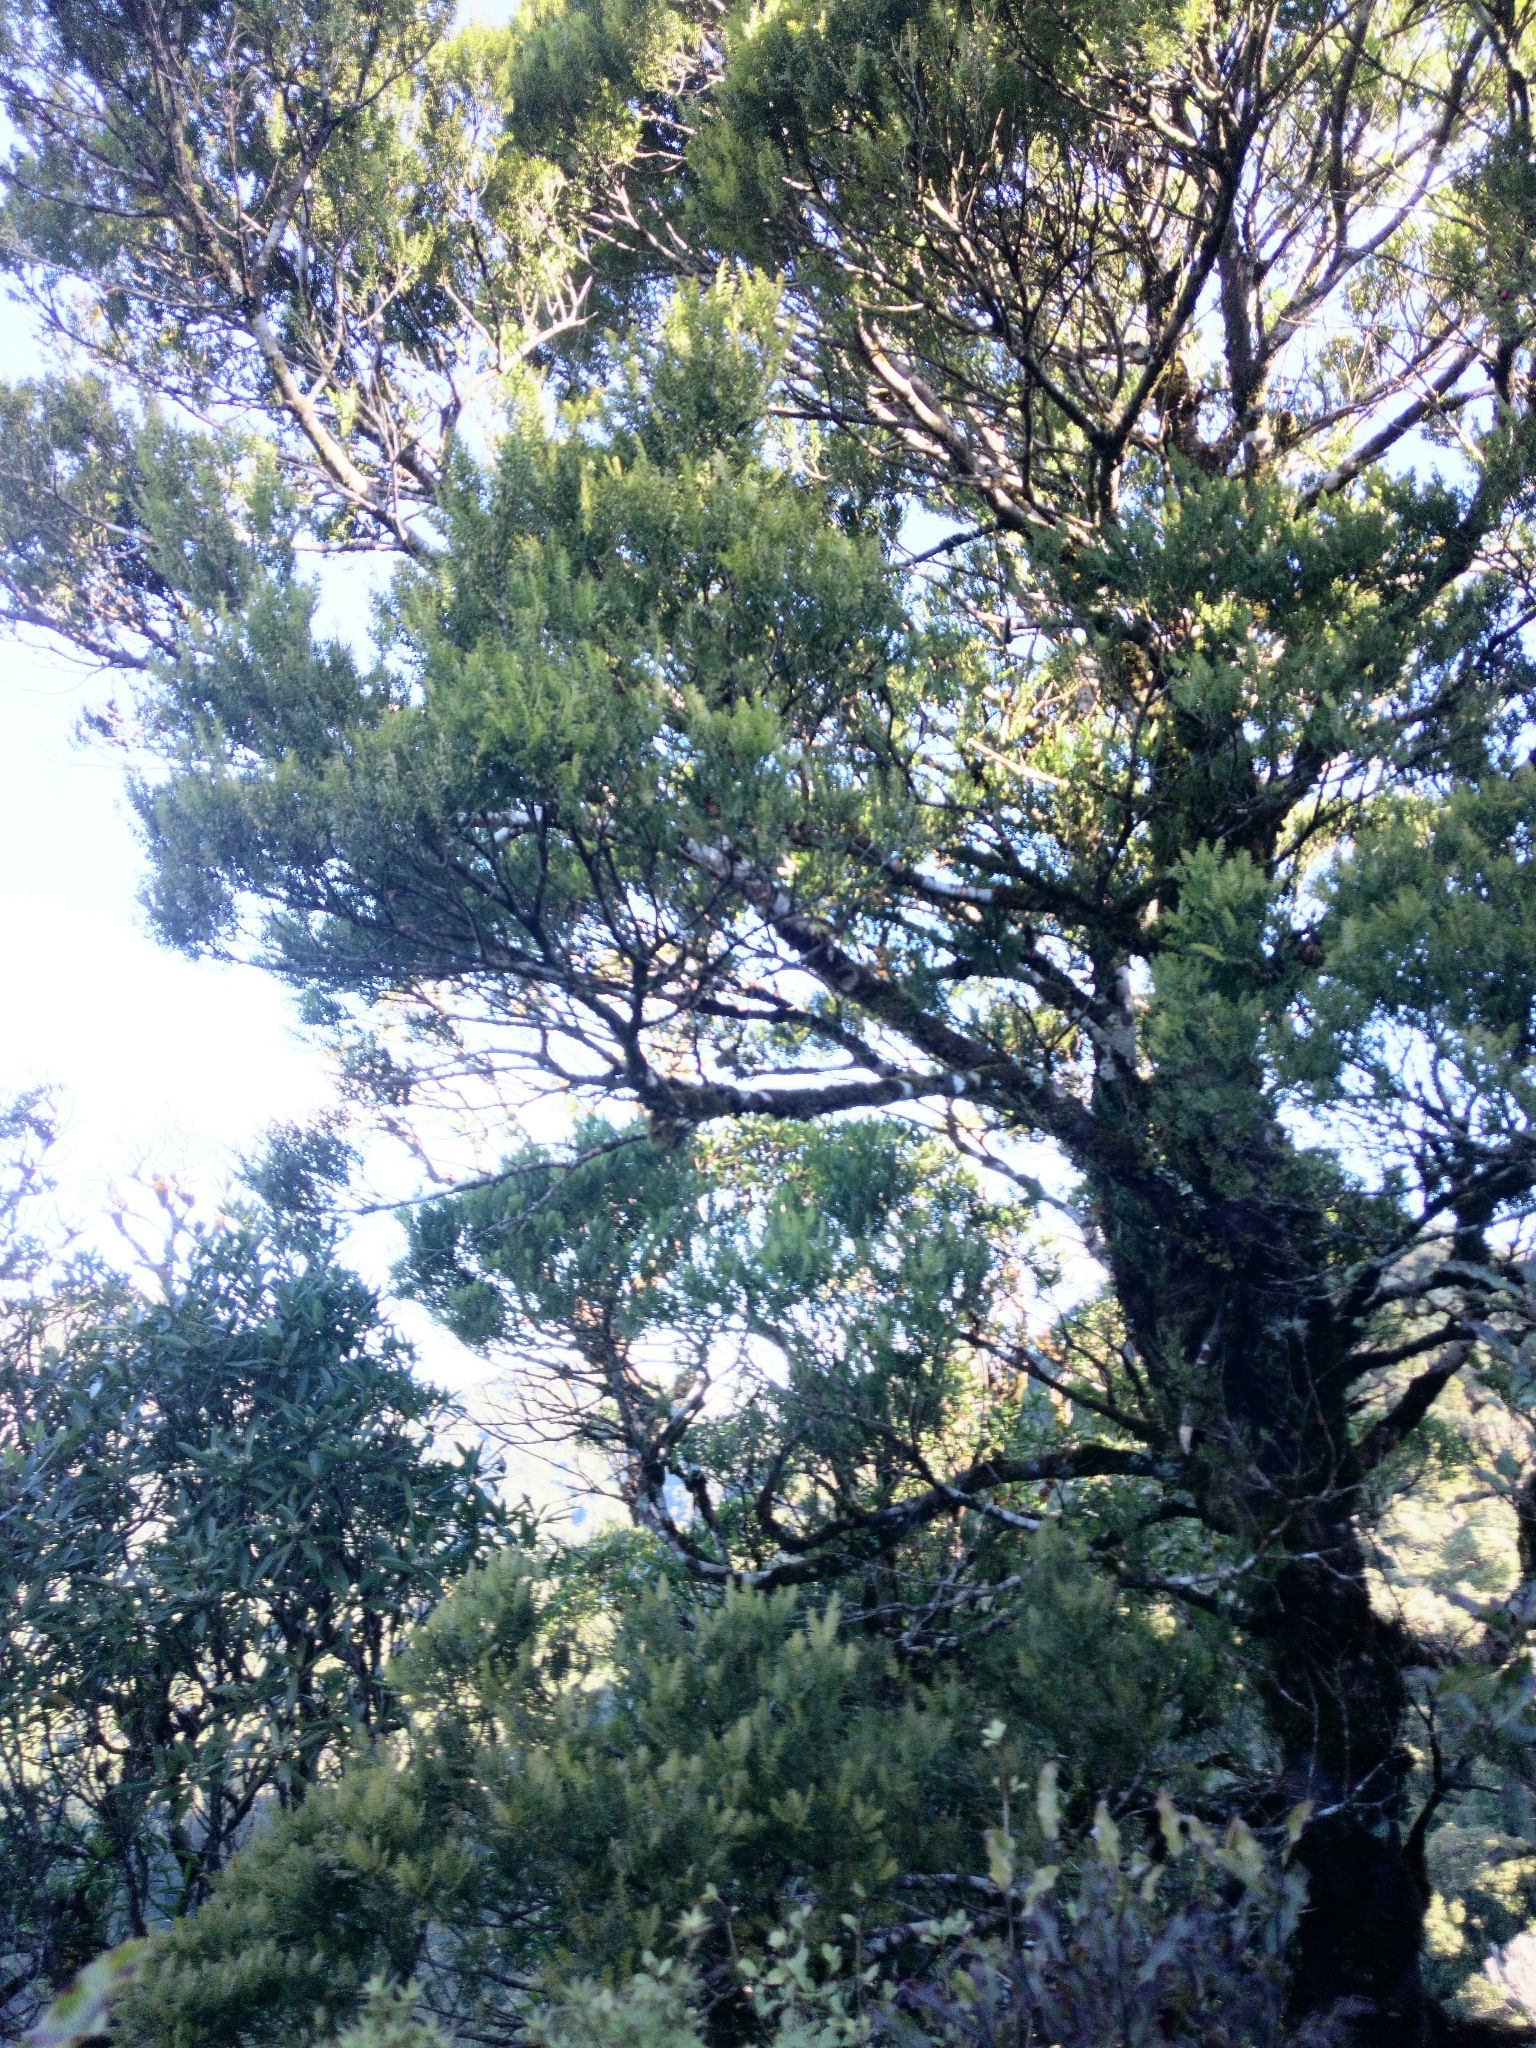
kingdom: Plantae
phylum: Tracheophyta
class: Pinopsida
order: Pinales
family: Podocarpaceae
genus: Prumnopitys
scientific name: Prumnopitys ferruginea
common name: Brown pine
